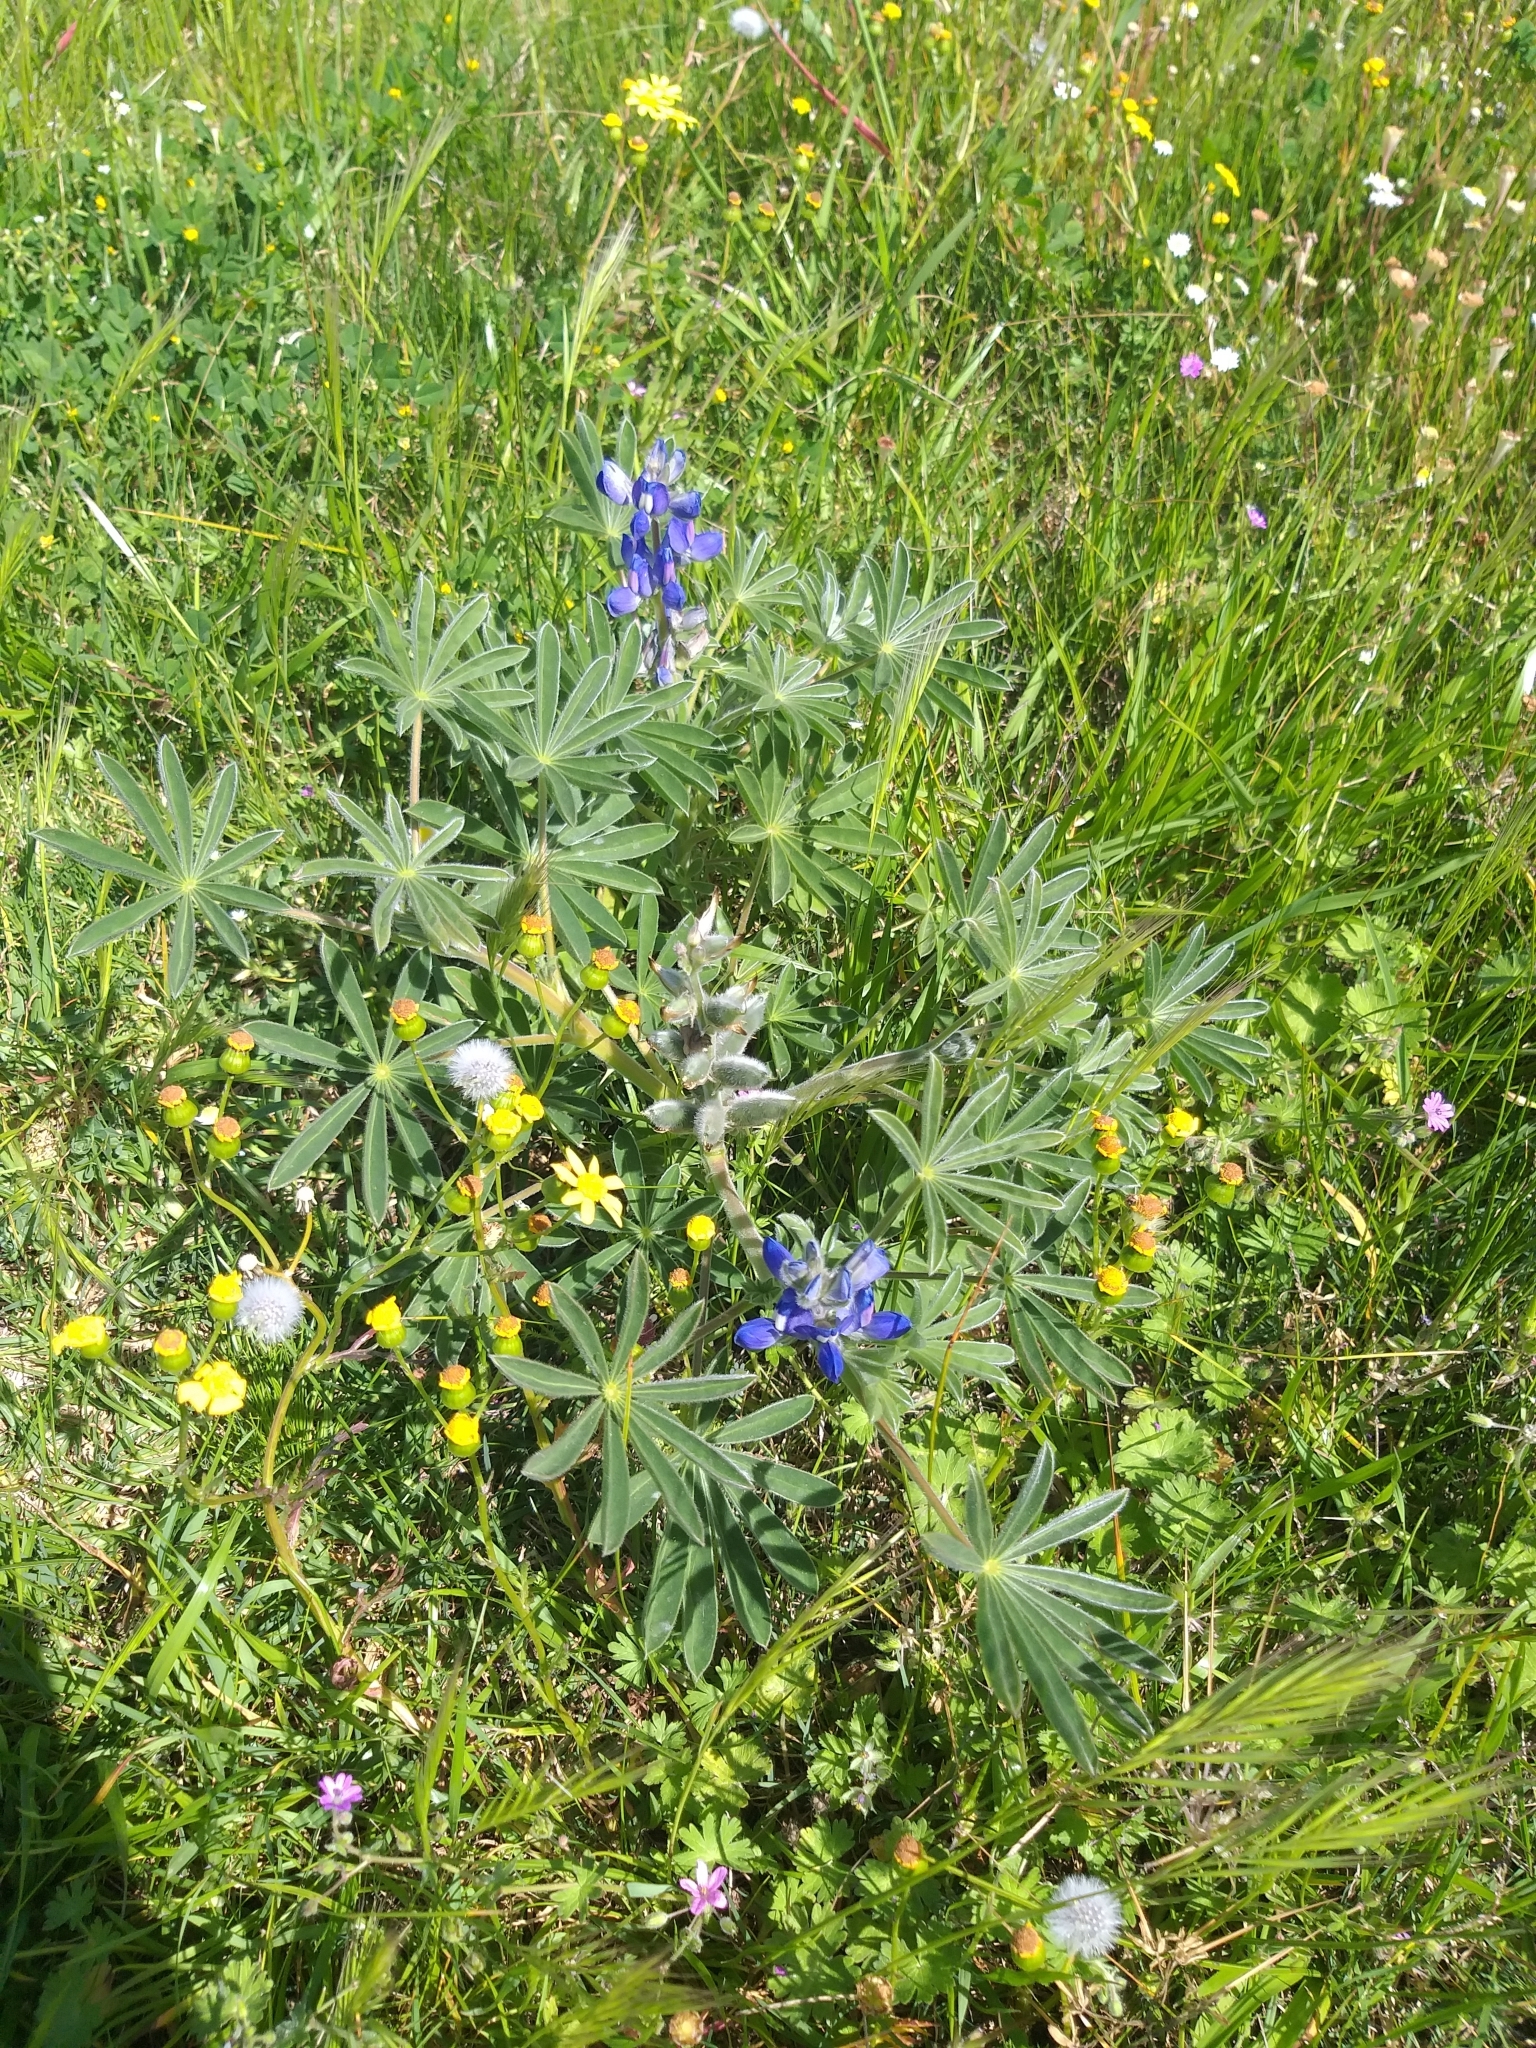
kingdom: Plantae
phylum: Tracheophyta
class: Magnoliopsida
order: Fabales
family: Fabaceae
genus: Lupinus
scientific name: Lupinus cosentinii
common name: Hairy blue lupin
